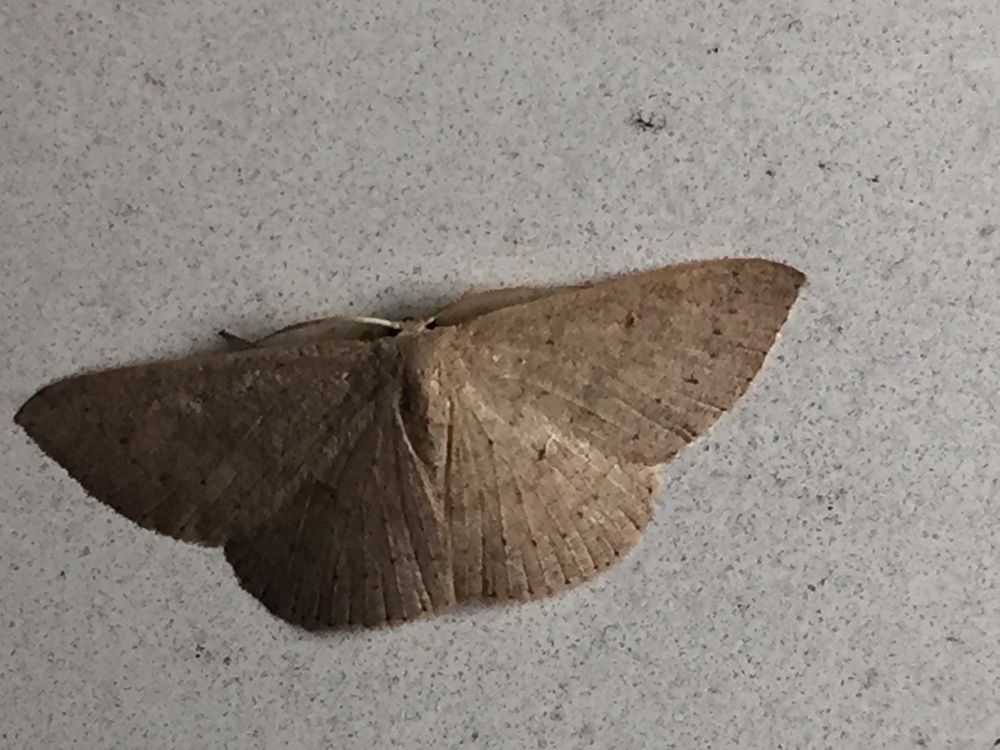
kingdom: Animalia
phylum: Arthropoda
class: Insecta
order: Lepidoptera
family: Geometridae
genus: Cyclophora
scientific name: Cyclophora obstataria
